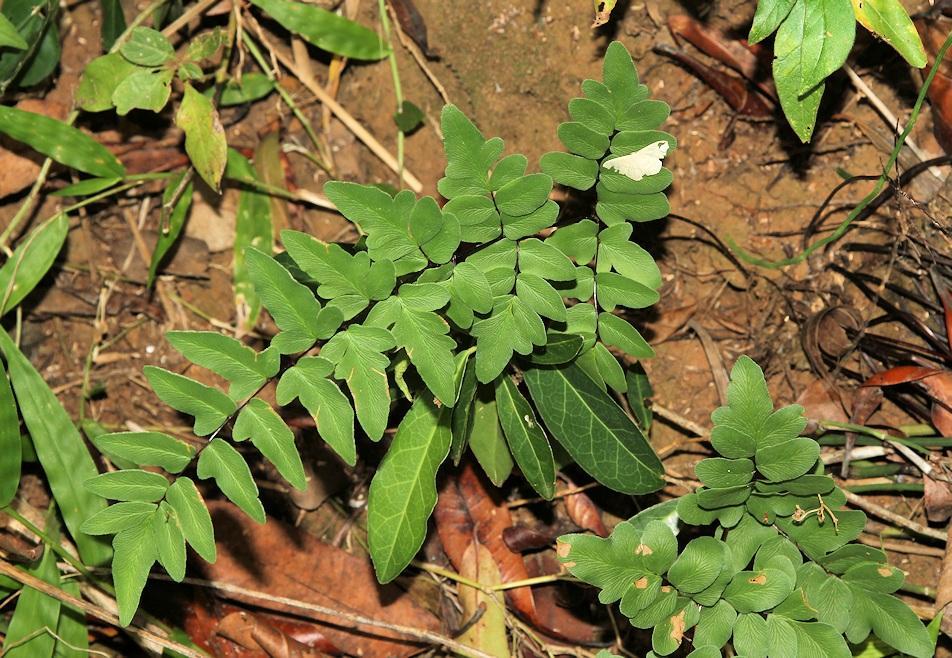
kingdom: Plantae
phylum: Tracheophyta
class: Polypodiopsida
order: Polypodiales
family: Pteridaceae
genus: Cheilanthes
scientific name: Cheilanthes viridis
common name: Green cliffbrake
